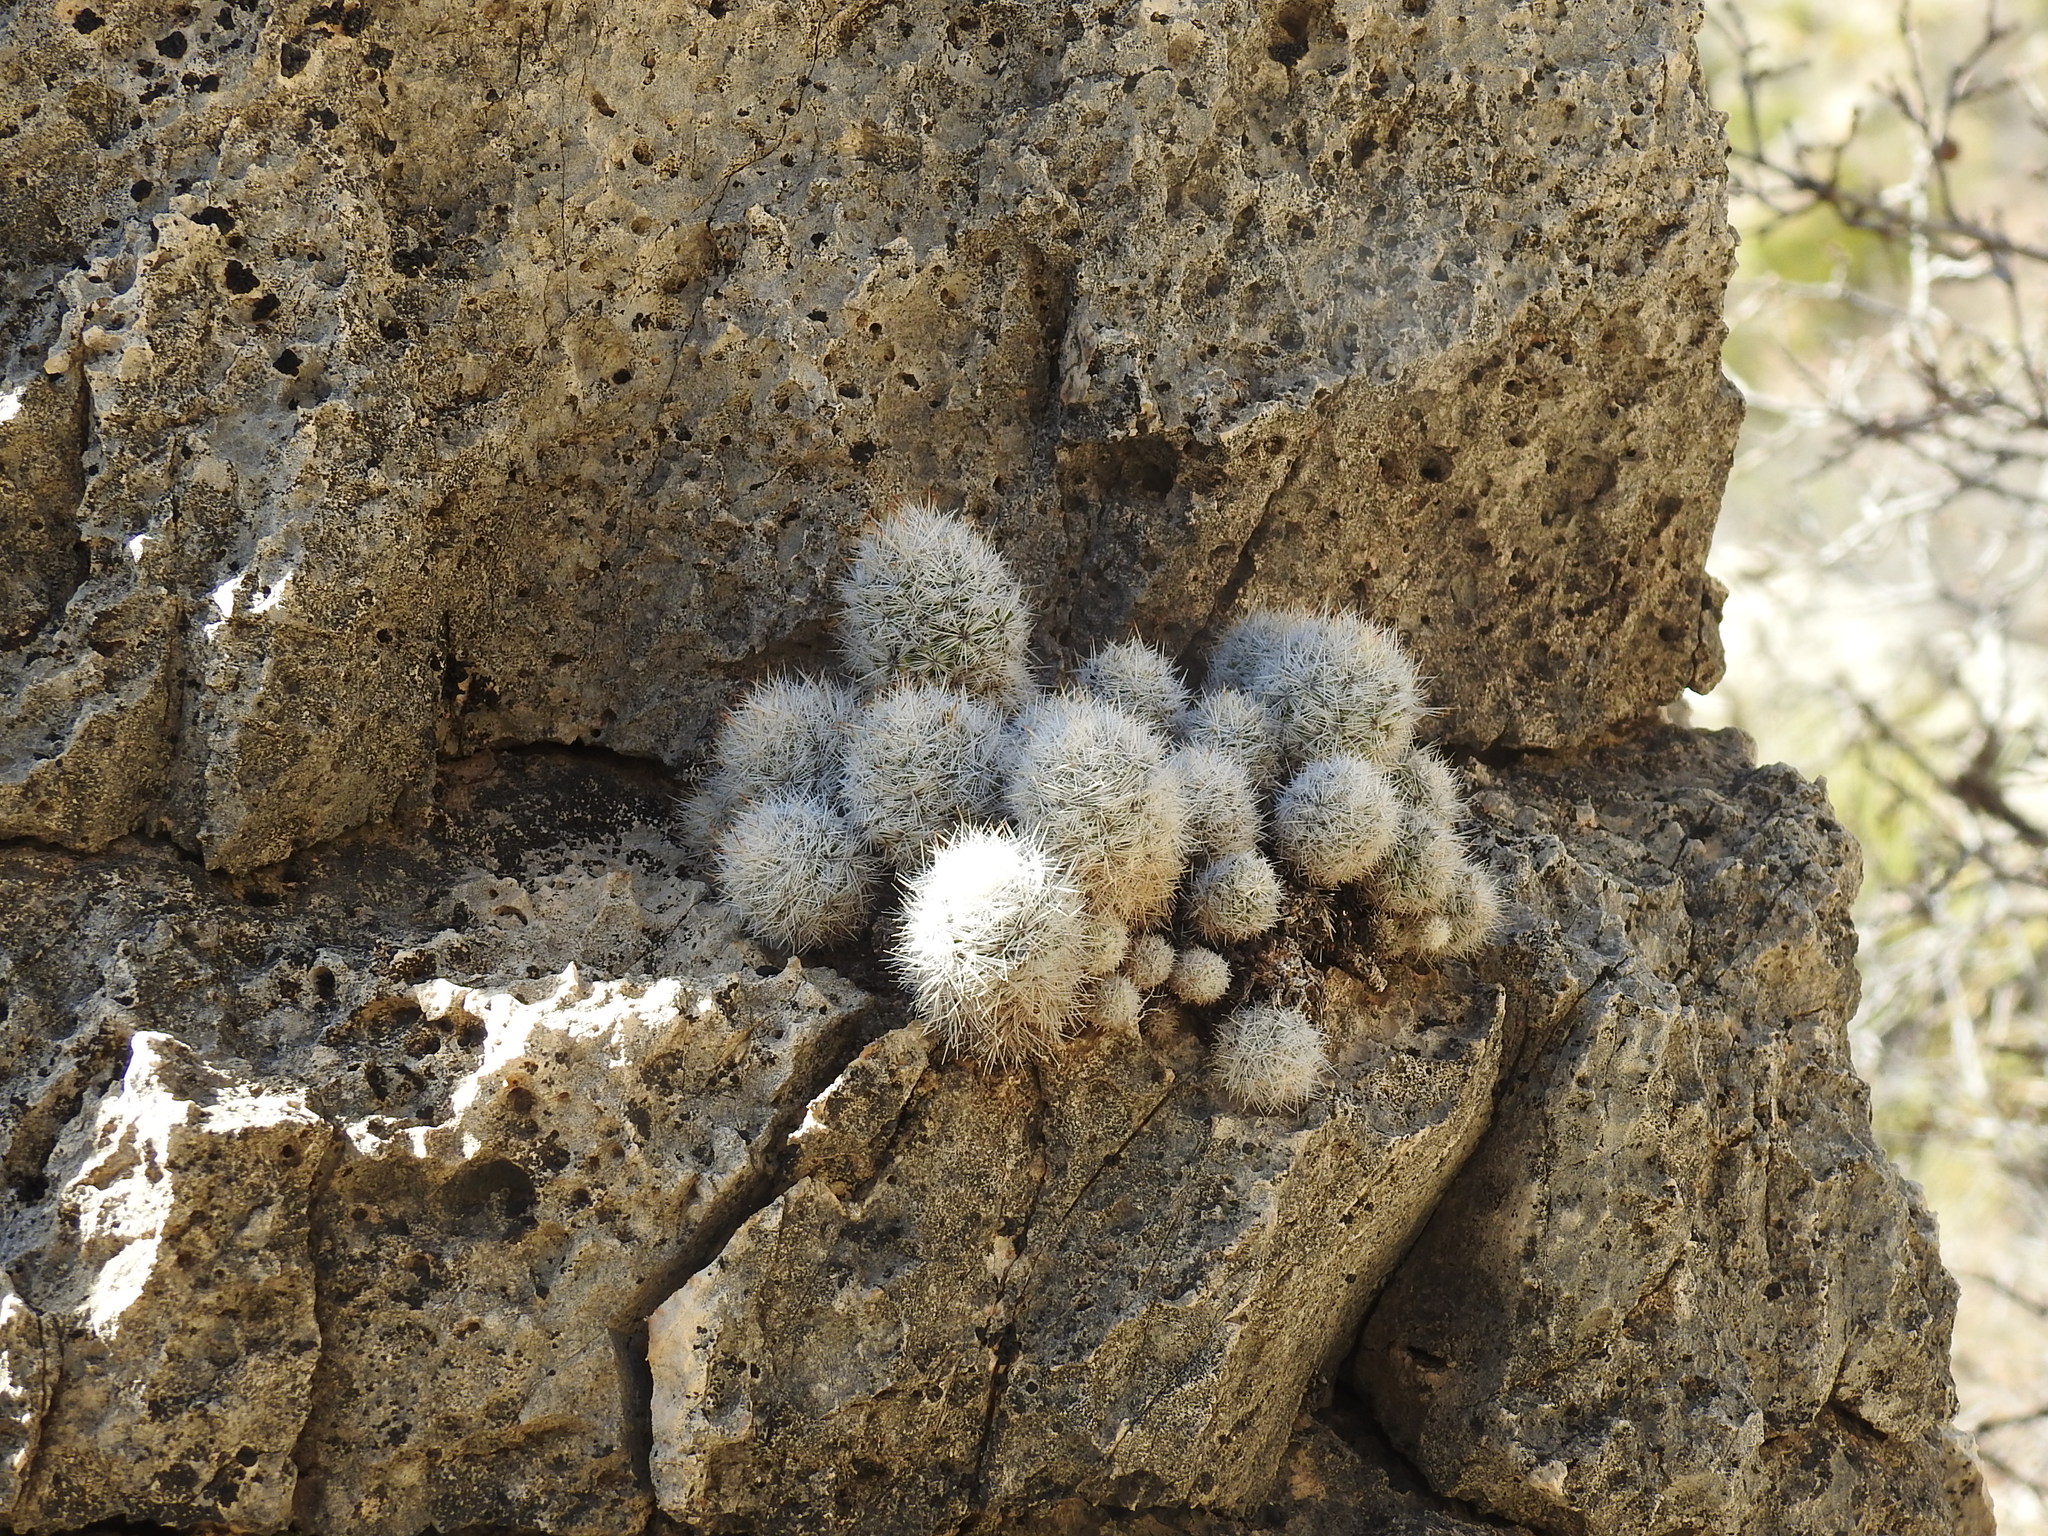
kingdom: Plantae
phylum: Tracheophyta
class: Magnoliopsida
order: Caryophyllales
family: Cactaceae
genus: Pelecyphora
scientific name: Pelecyphora sneedii
